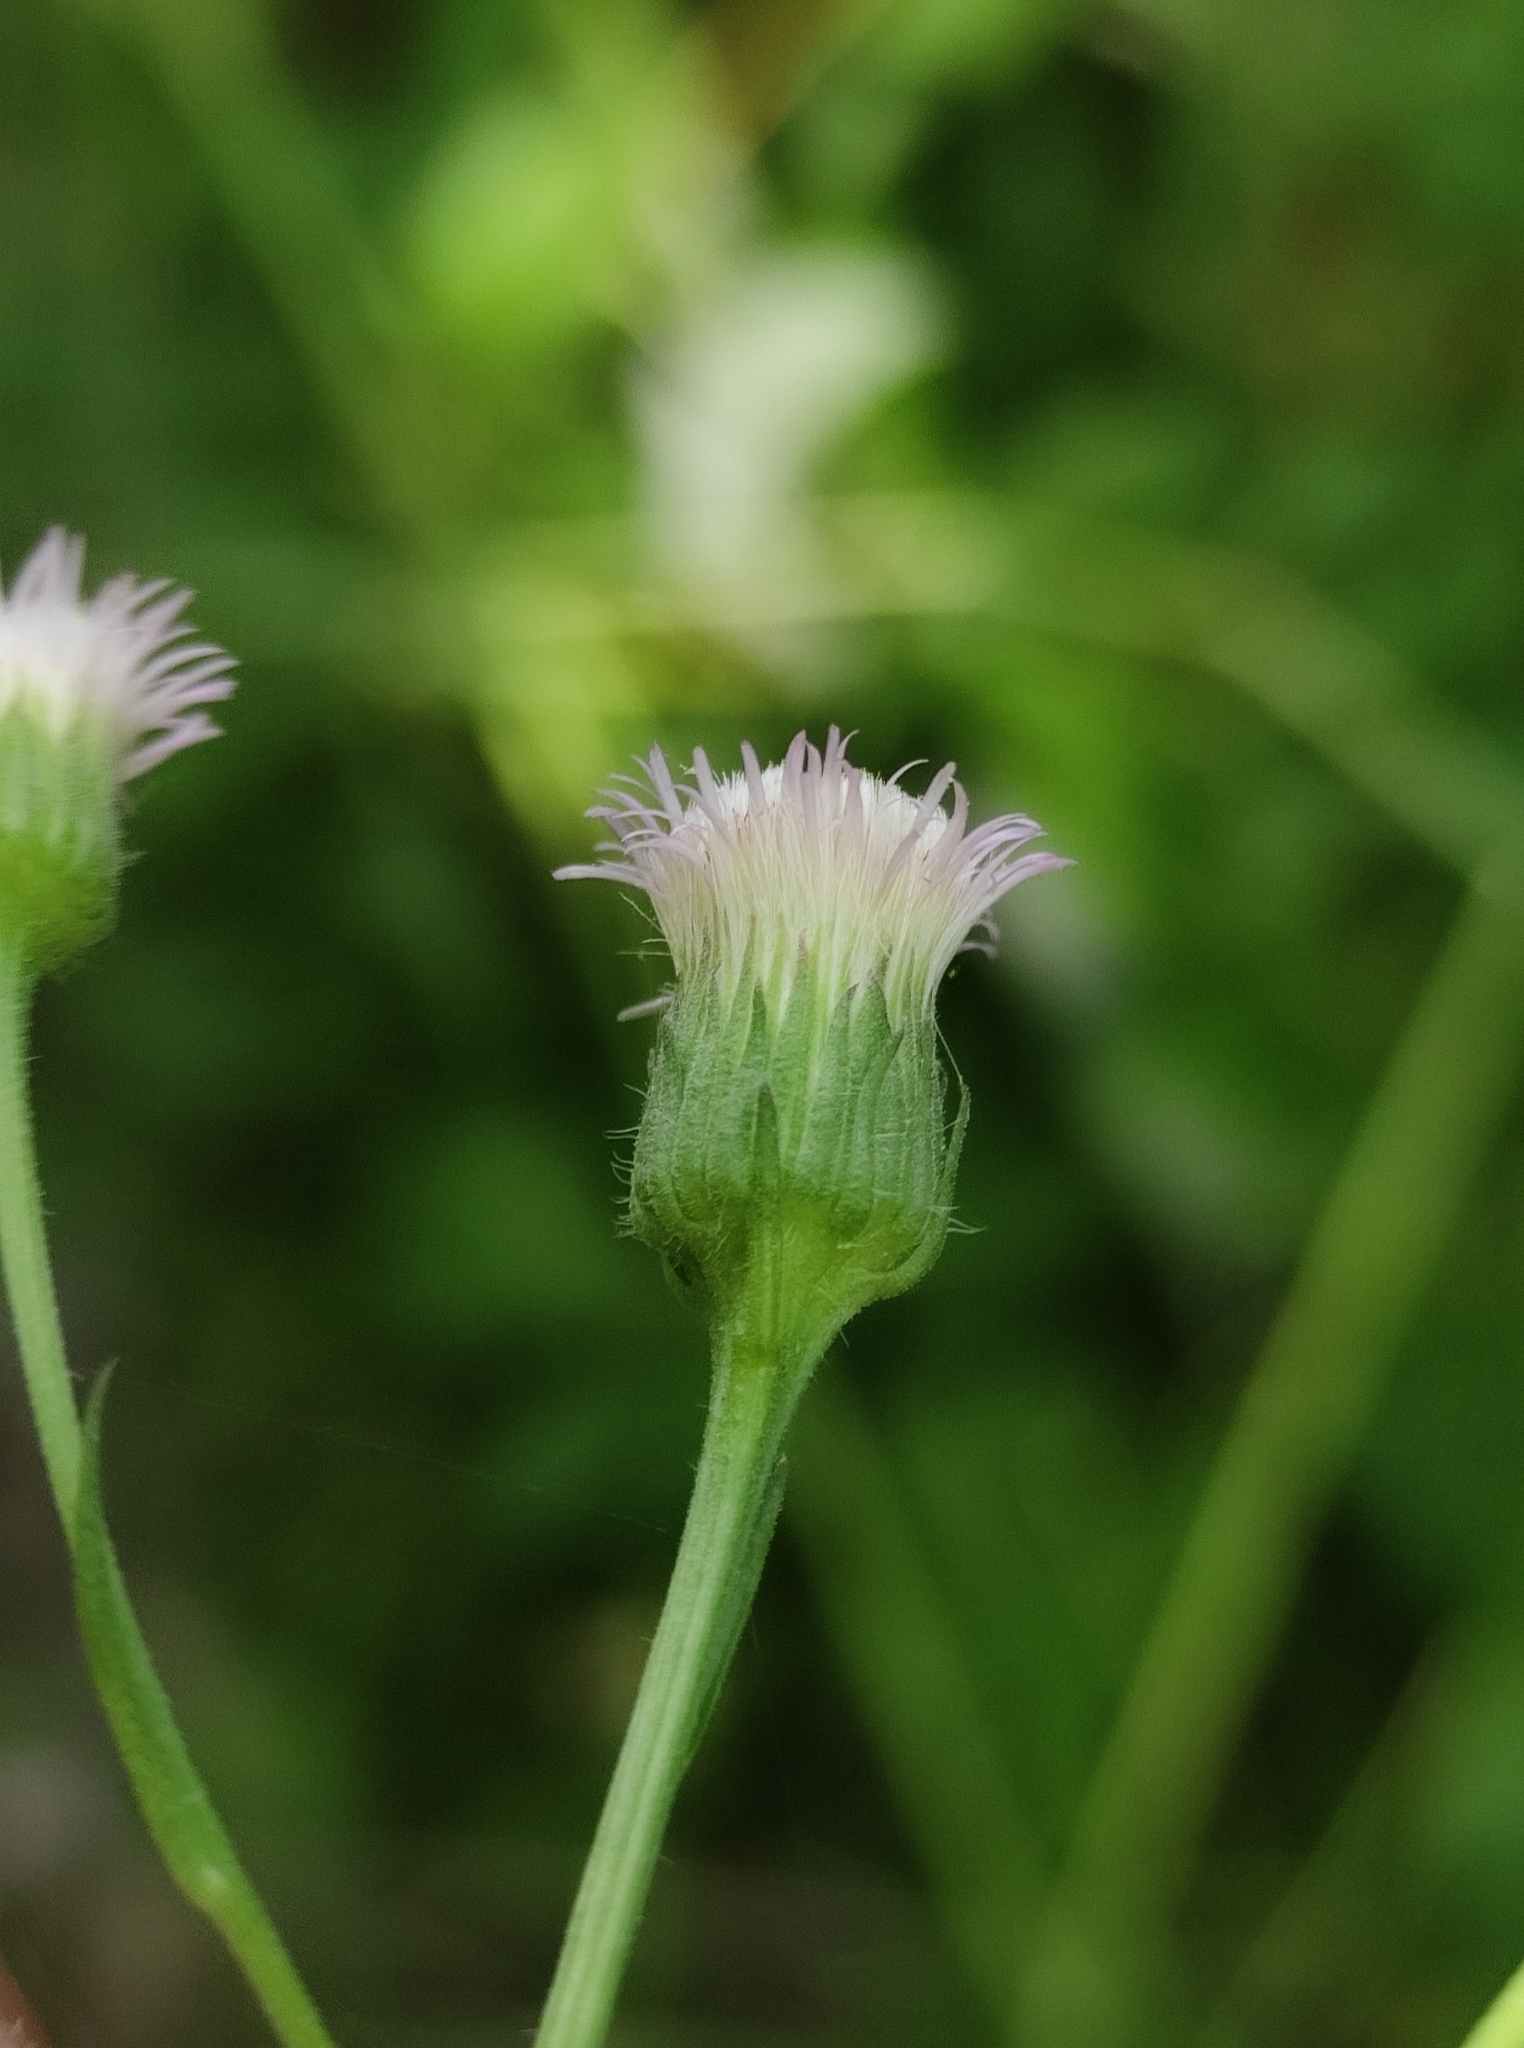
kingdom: Plantae
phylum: Tracheophyta
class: Magnoliopsida
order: Asterales
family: Asteraceae
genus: Erigeron
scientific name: Erigeron
